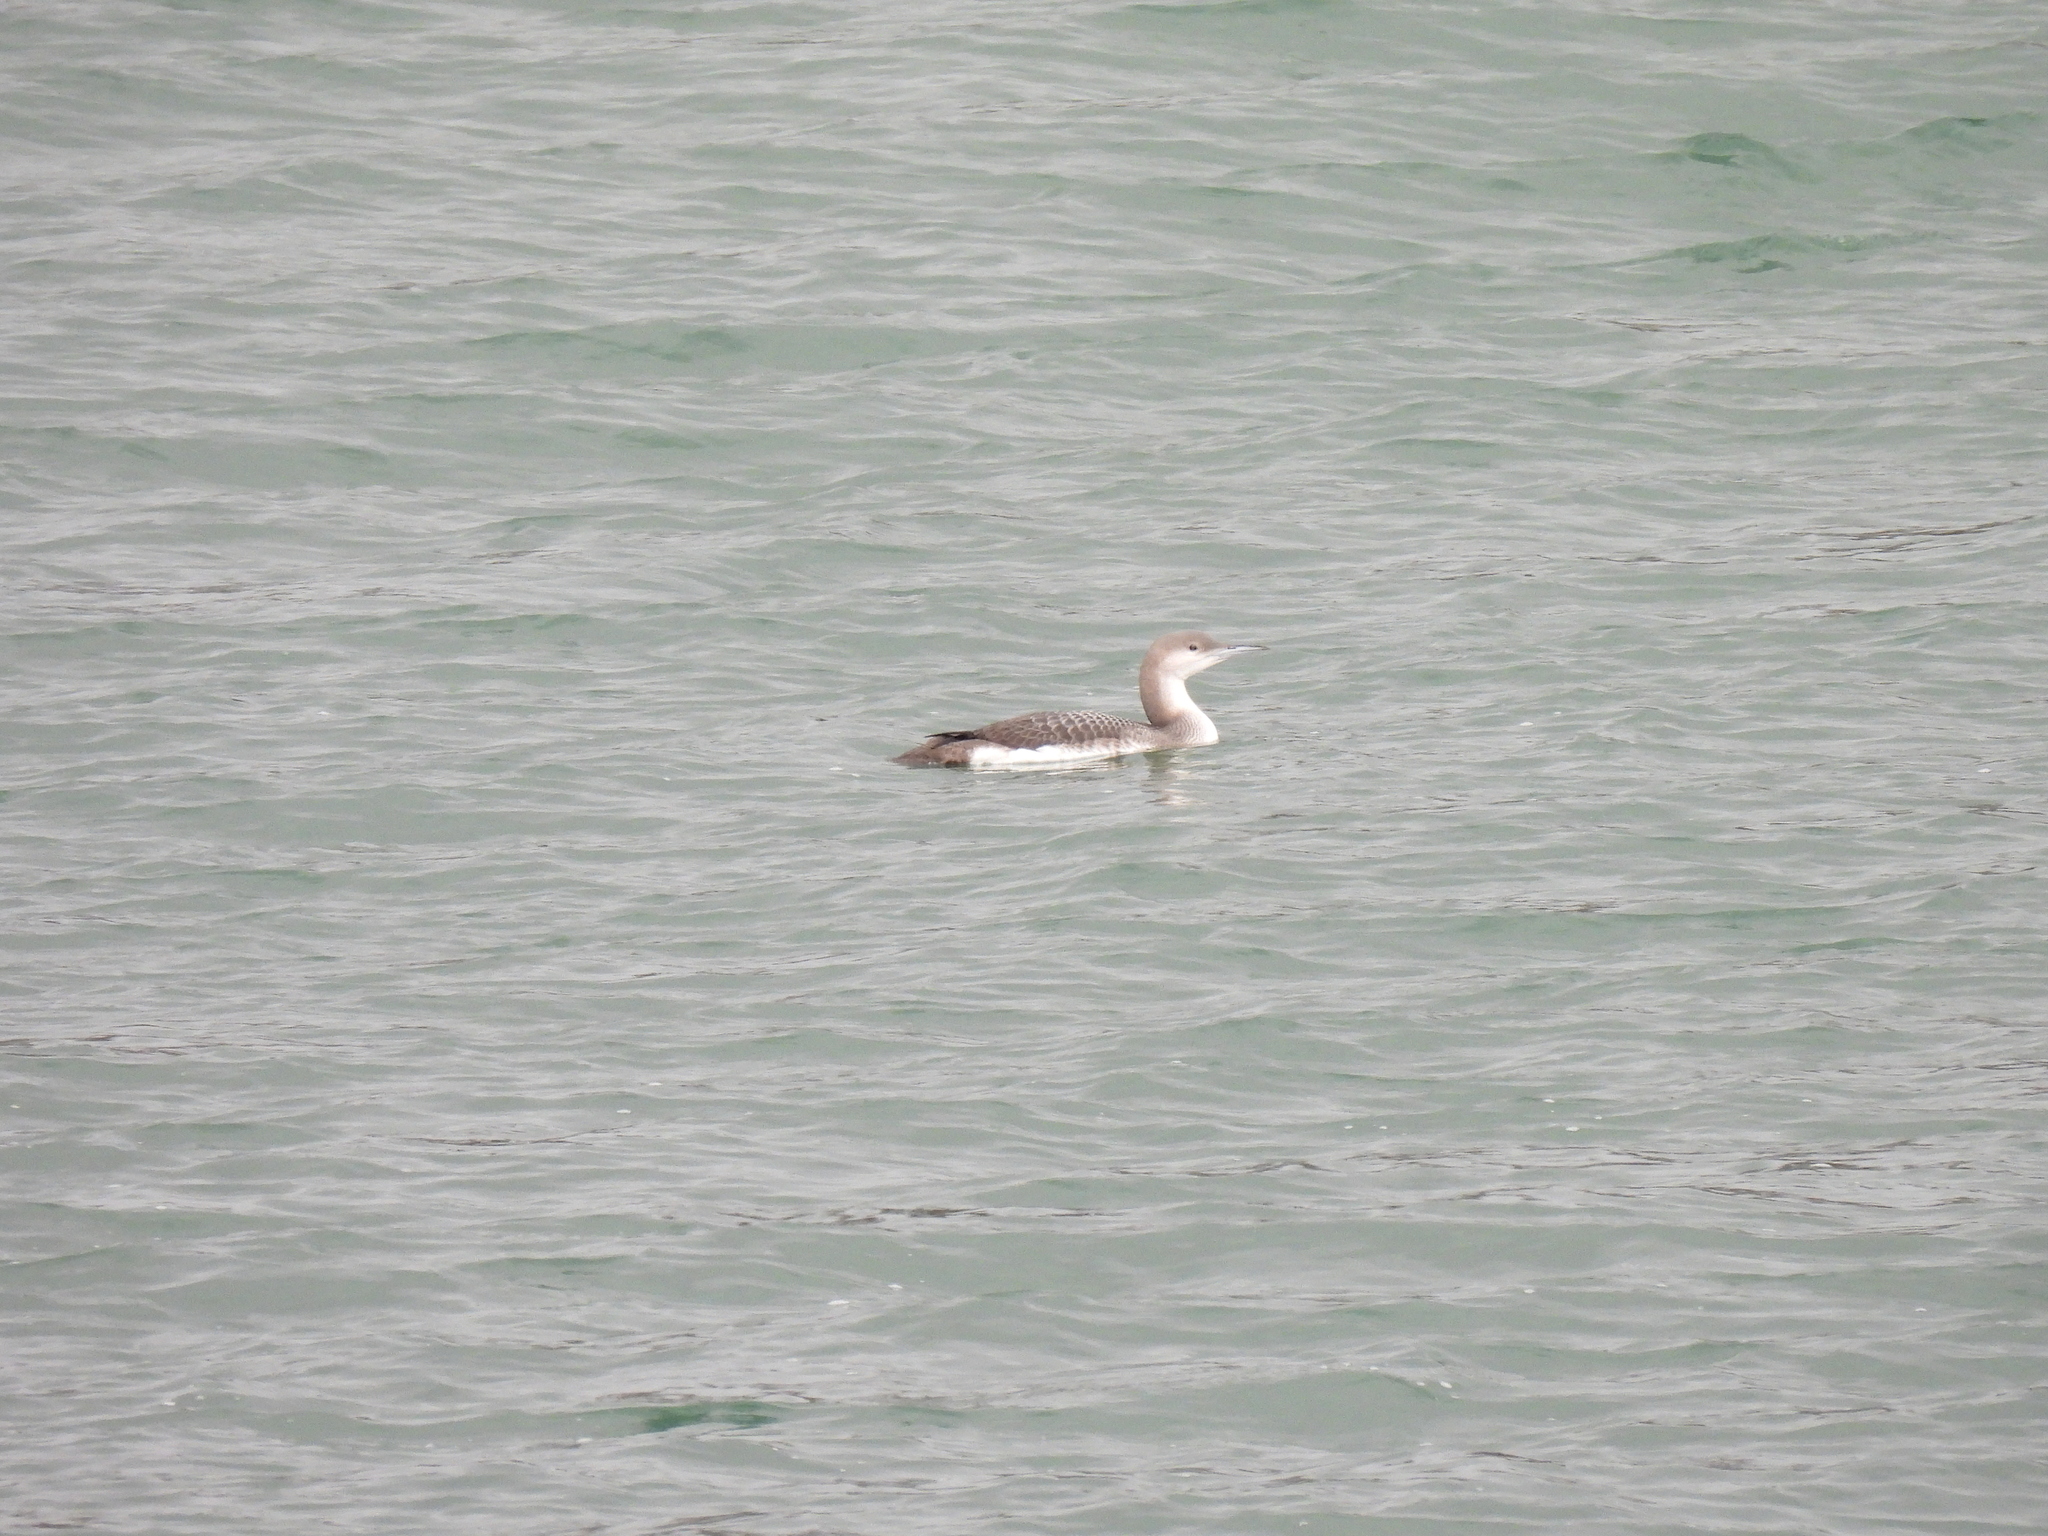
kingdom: Animalia
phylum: Chordata
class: Aves
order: Gaviiformes
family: Gaviidae
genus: Gavia
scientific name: Gavia arctica
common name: Black-throated loon
